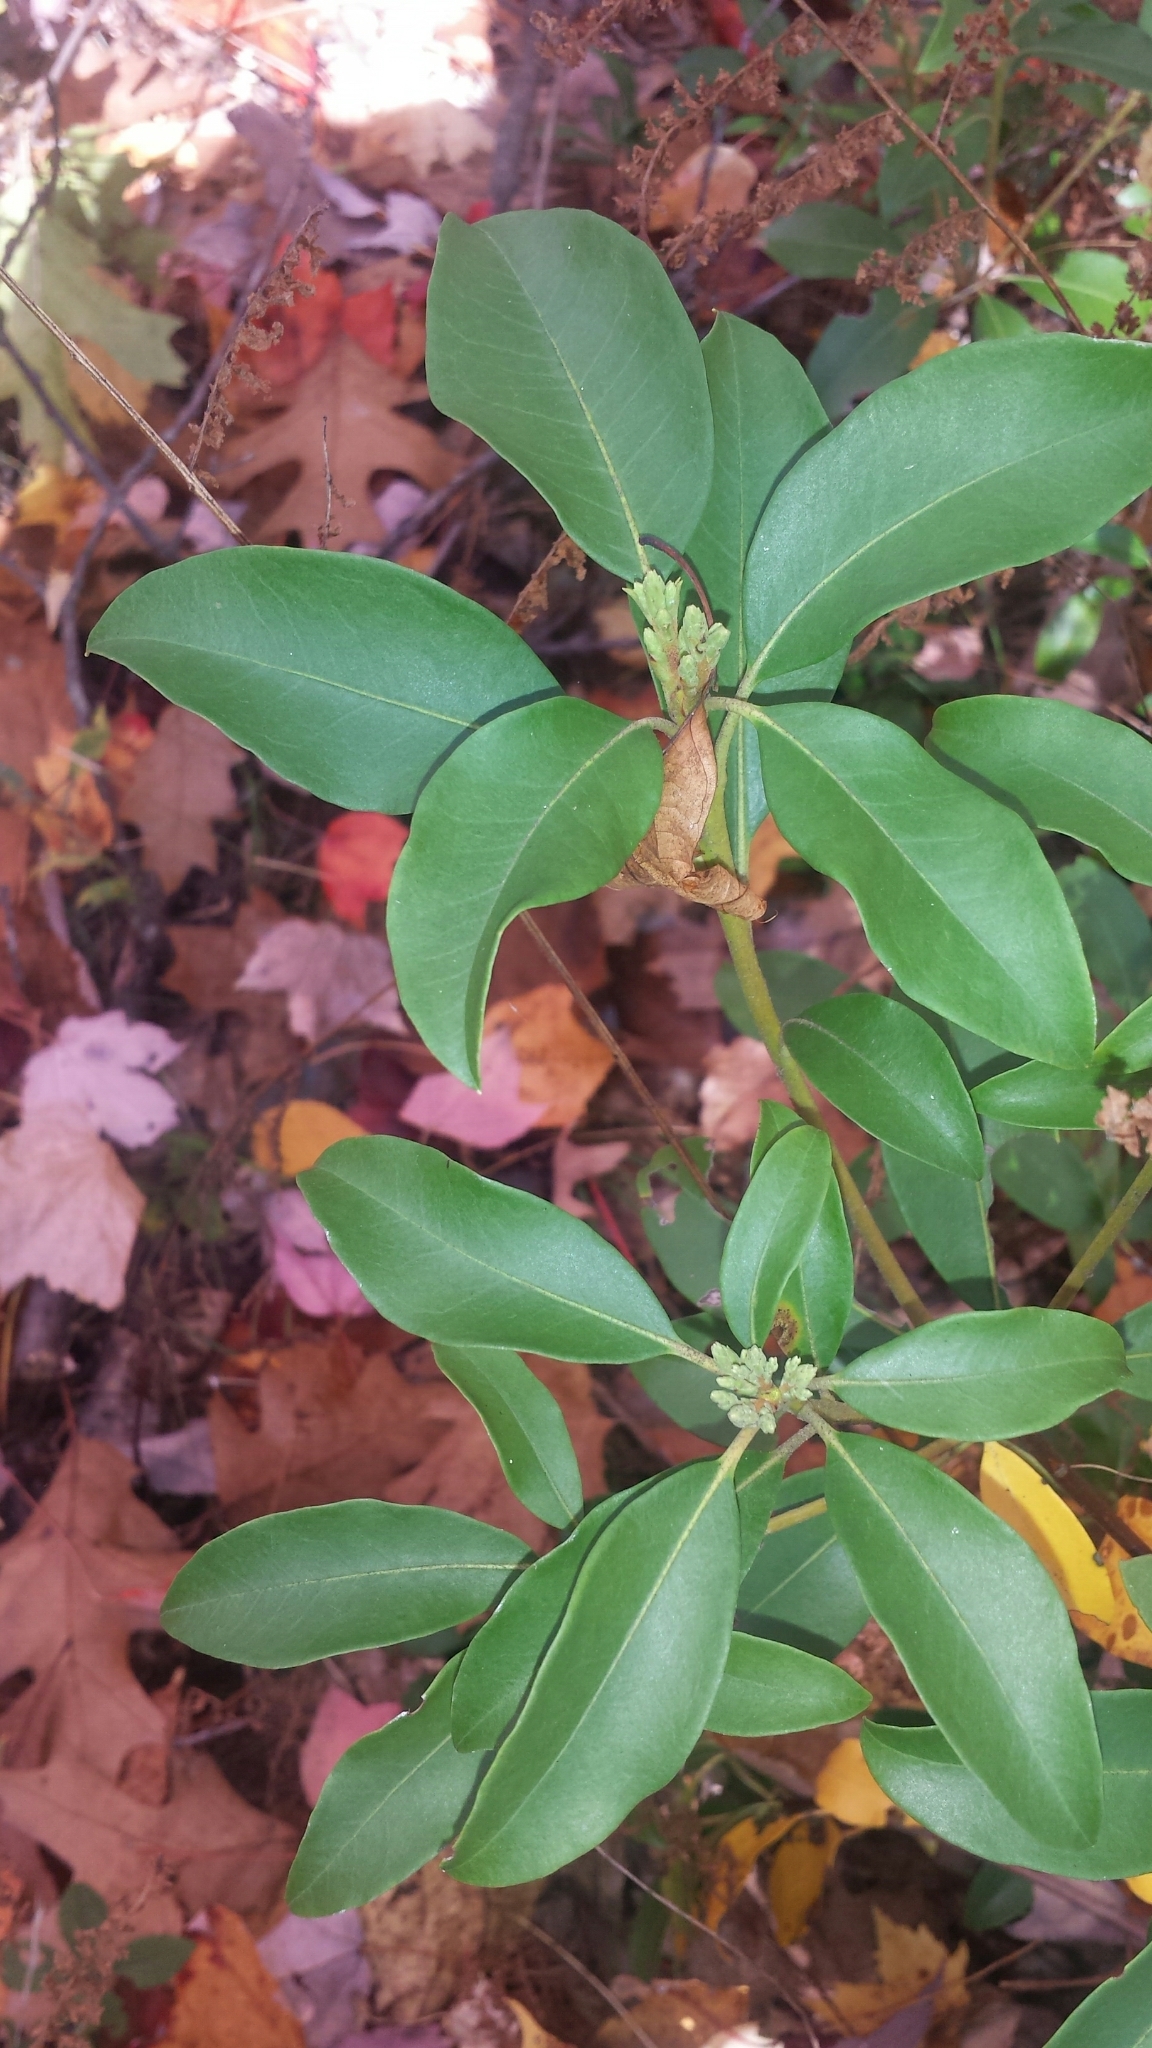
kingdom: Plantae
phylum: Tracheophyta
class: Magnoliopsida
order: Ericales
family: Ericaceae
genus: Kalmia
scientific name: Kalmia latifolia
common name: Mountain-laurel
